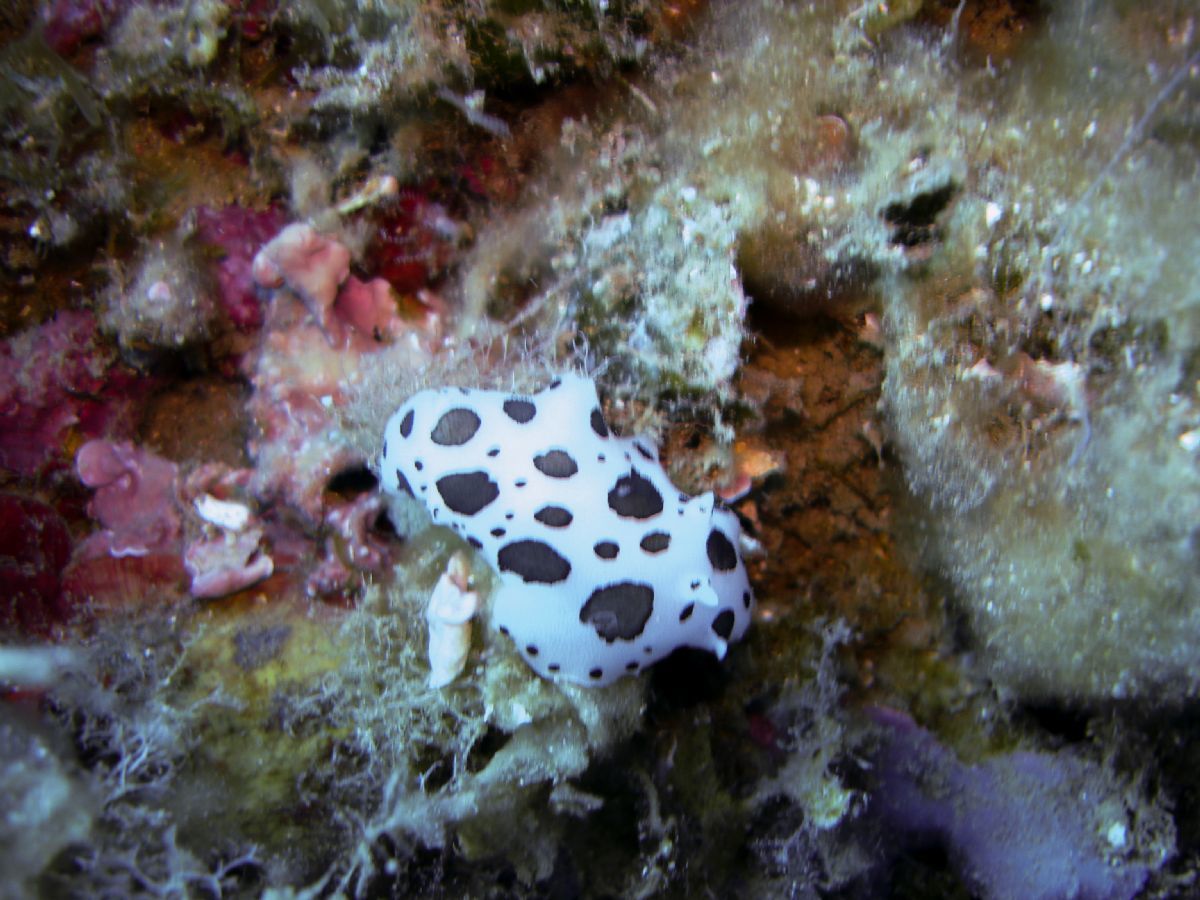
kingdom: Animalia
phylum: Mollusca
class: Gastropoda
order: Nudibranchia
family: Discodorididae
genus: Peltodoris
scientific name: Peltodoris atromaculata
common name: Swiss cow nudibranch
